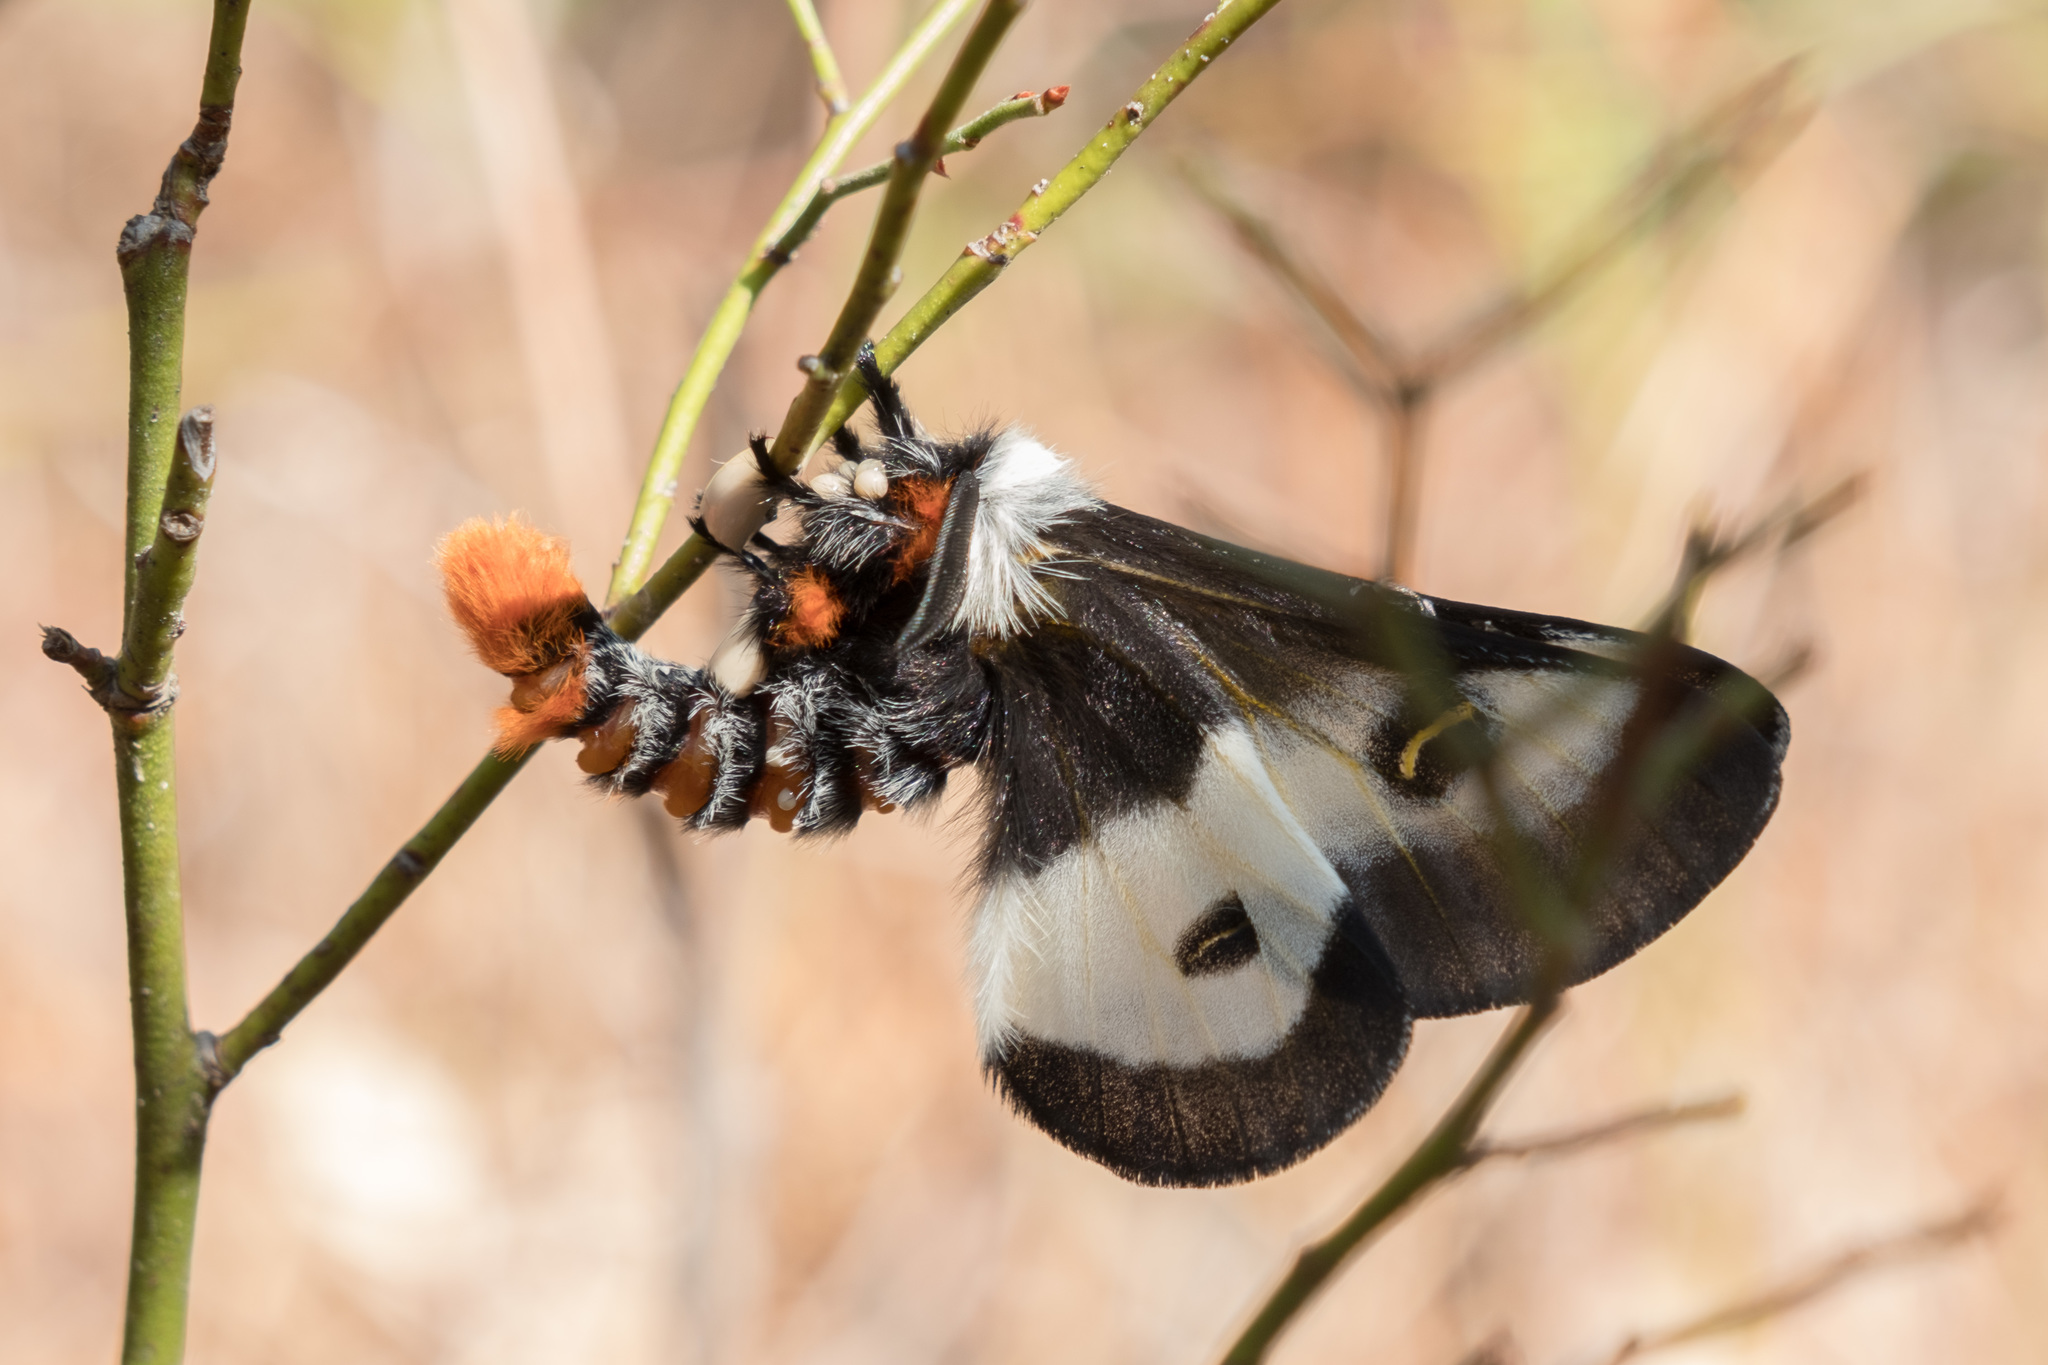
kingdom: Animalia
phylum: Arthropoda
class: Insecta
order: Lepidoptera
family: Saturniidae
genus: Hemileuca
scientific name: Hemileuca maia
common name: Eastern buckmoth
